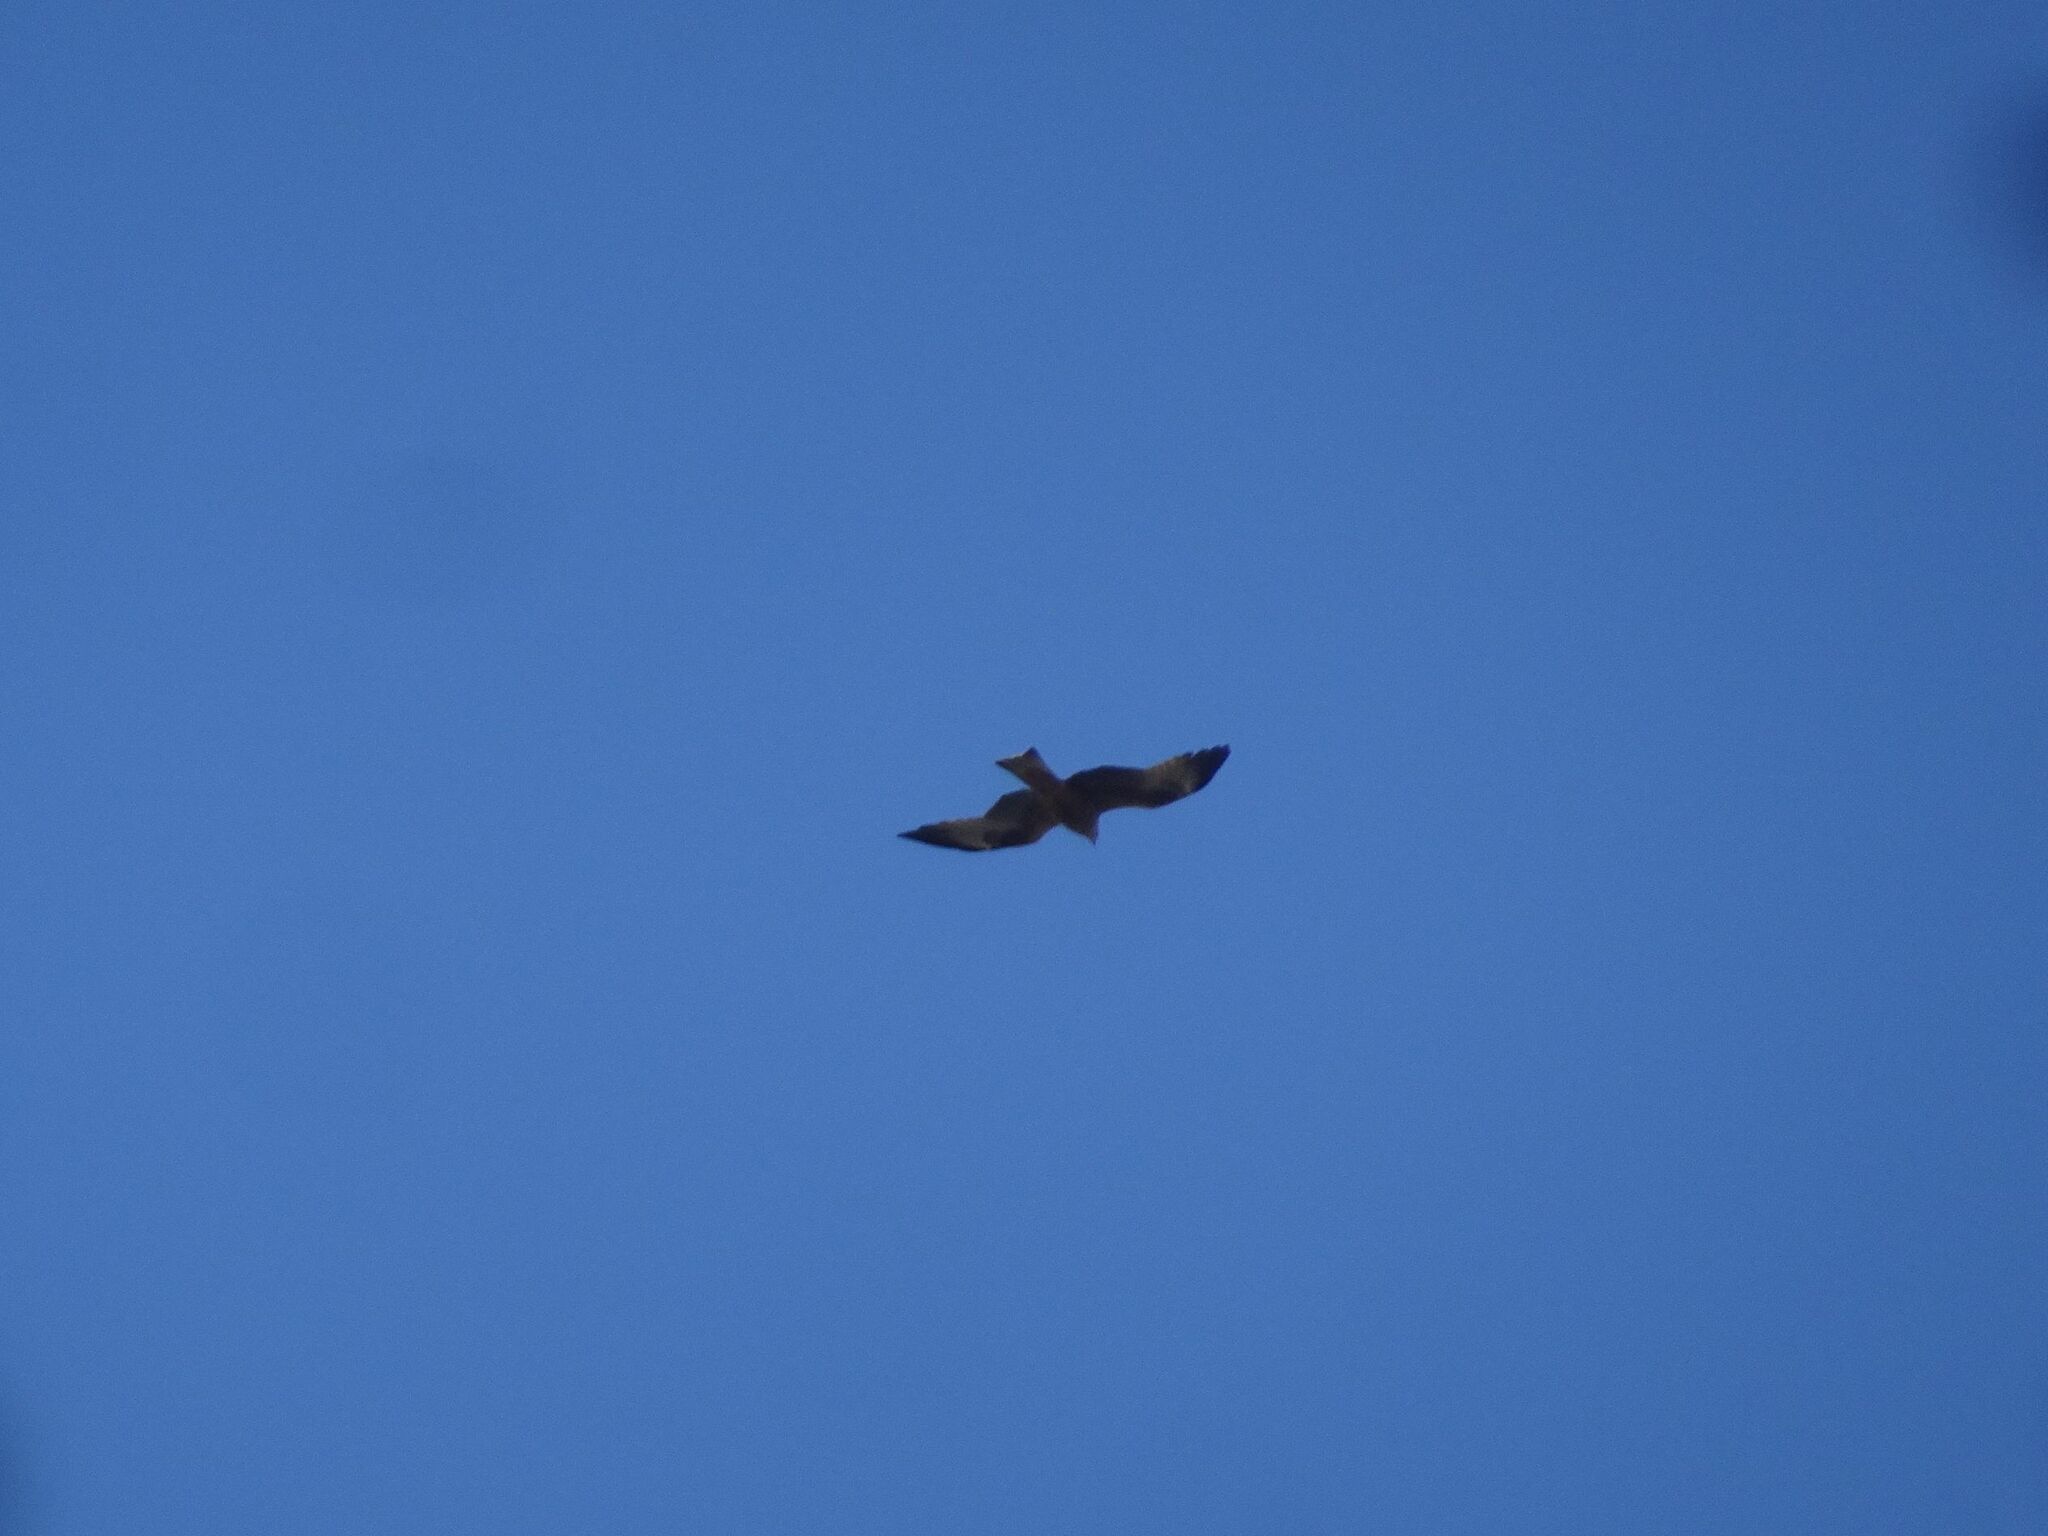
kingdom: Animalia
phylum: Chordata
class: Aves
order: Accipitriformes
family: Accipitridae
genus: Milvus
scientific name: Milvus migrans
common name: Black kite
